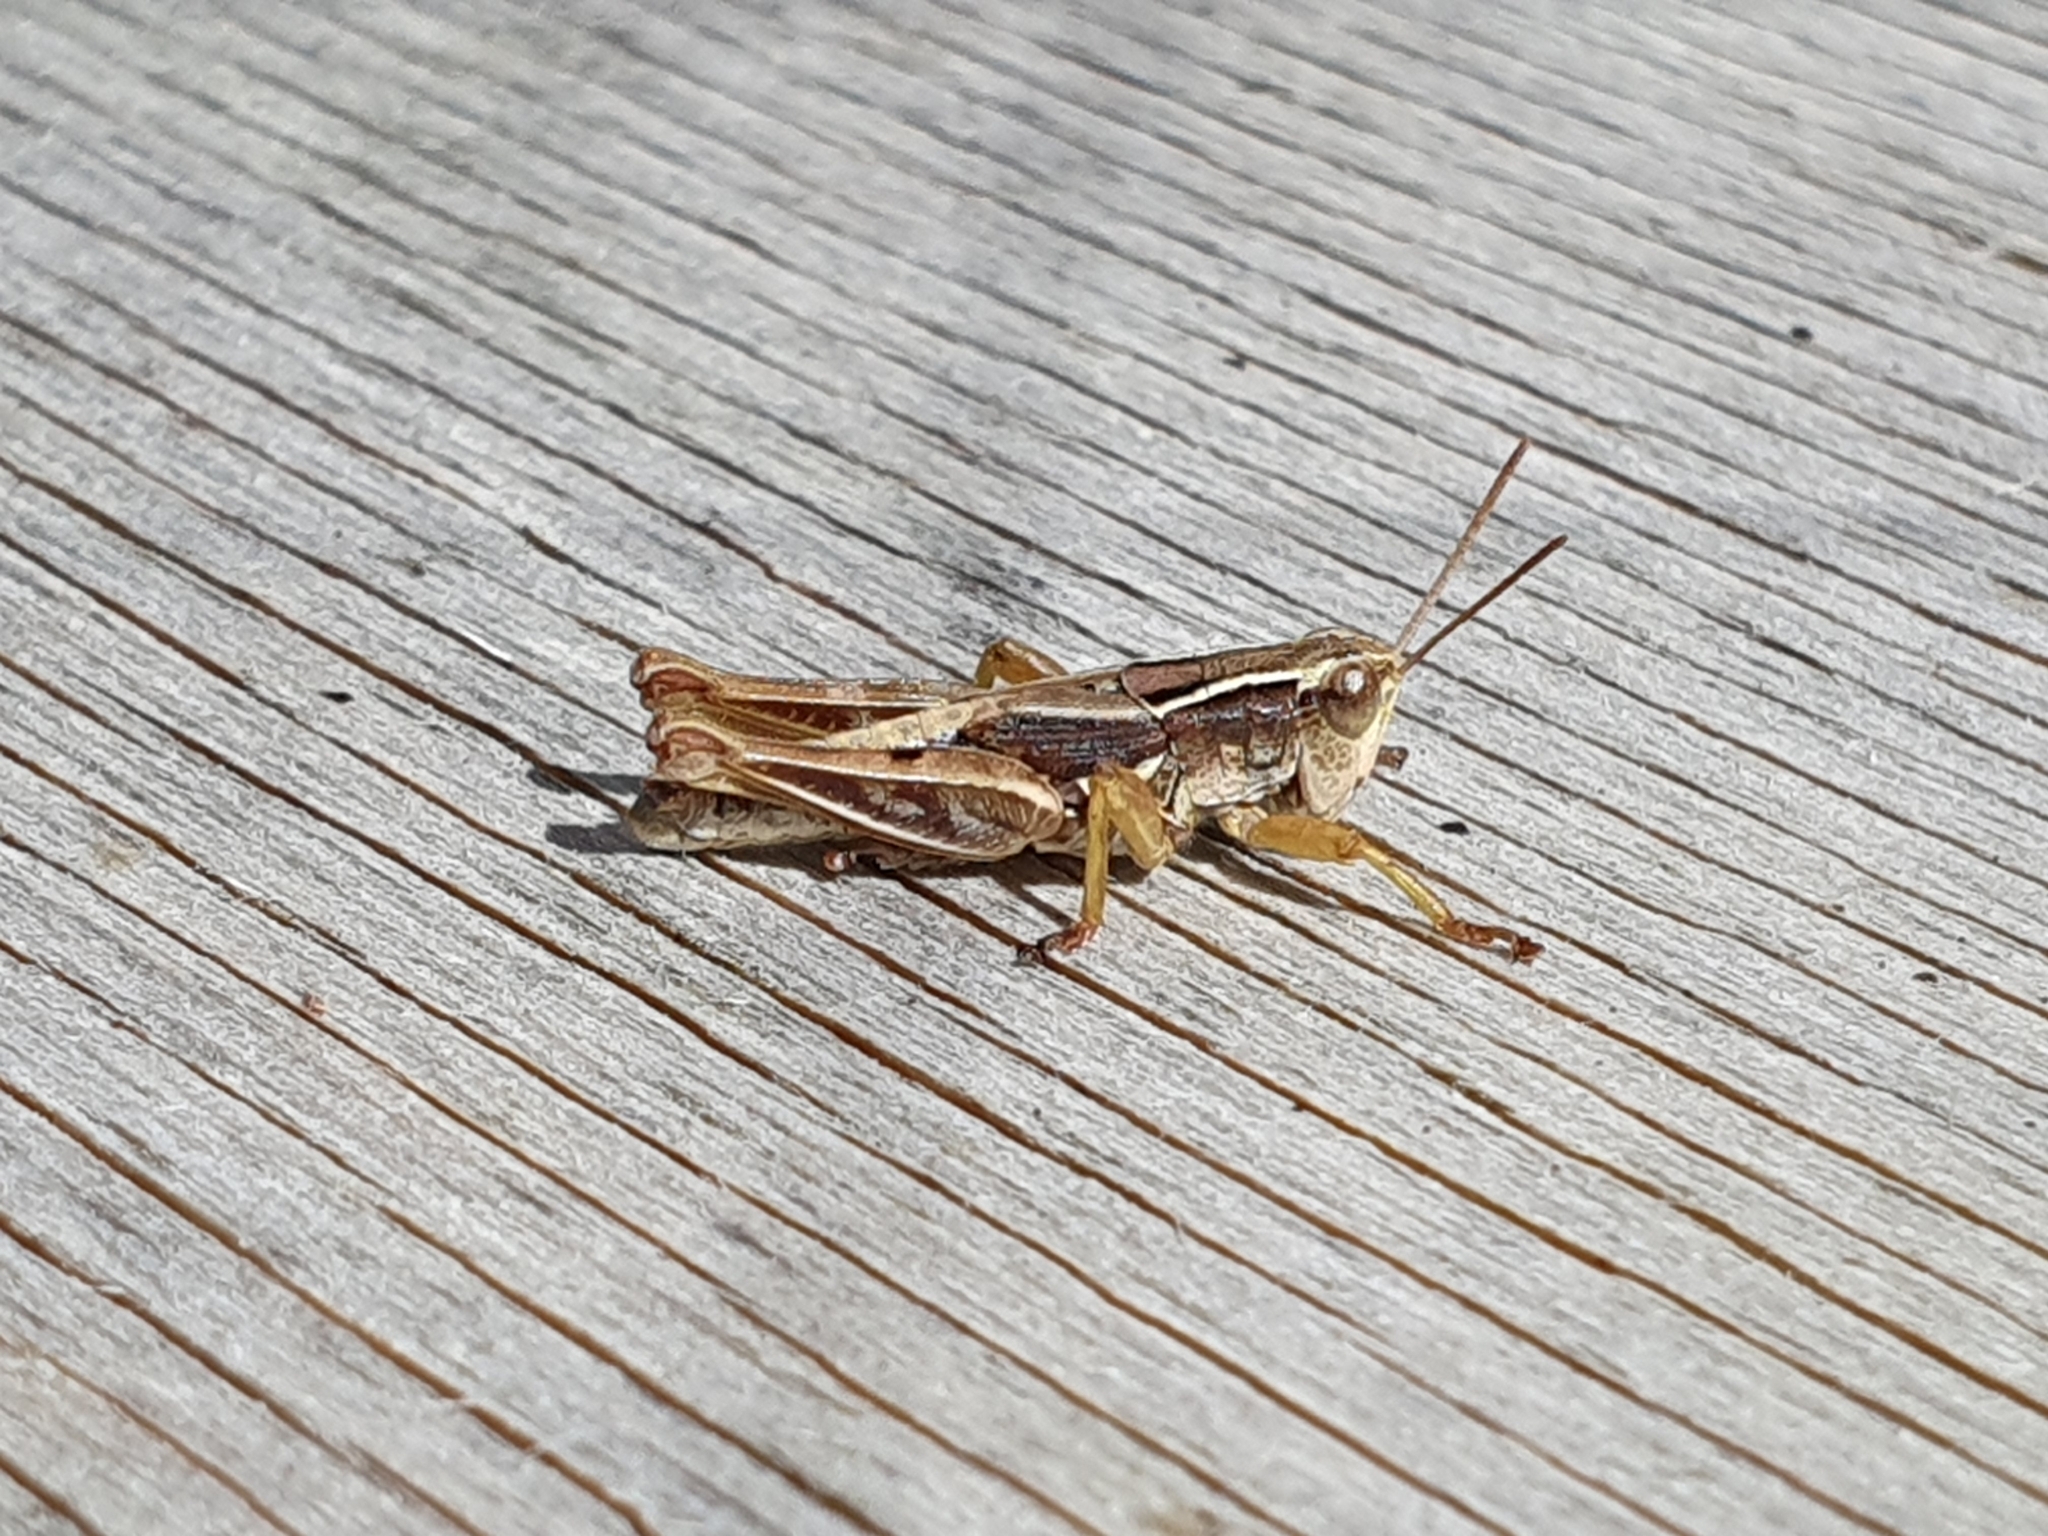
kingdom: Animalia
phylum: Arthropoda
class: Insecta
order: Orthoptera
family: Acrididae
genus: Phaulacridium
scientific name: Phaulacridium marginale
